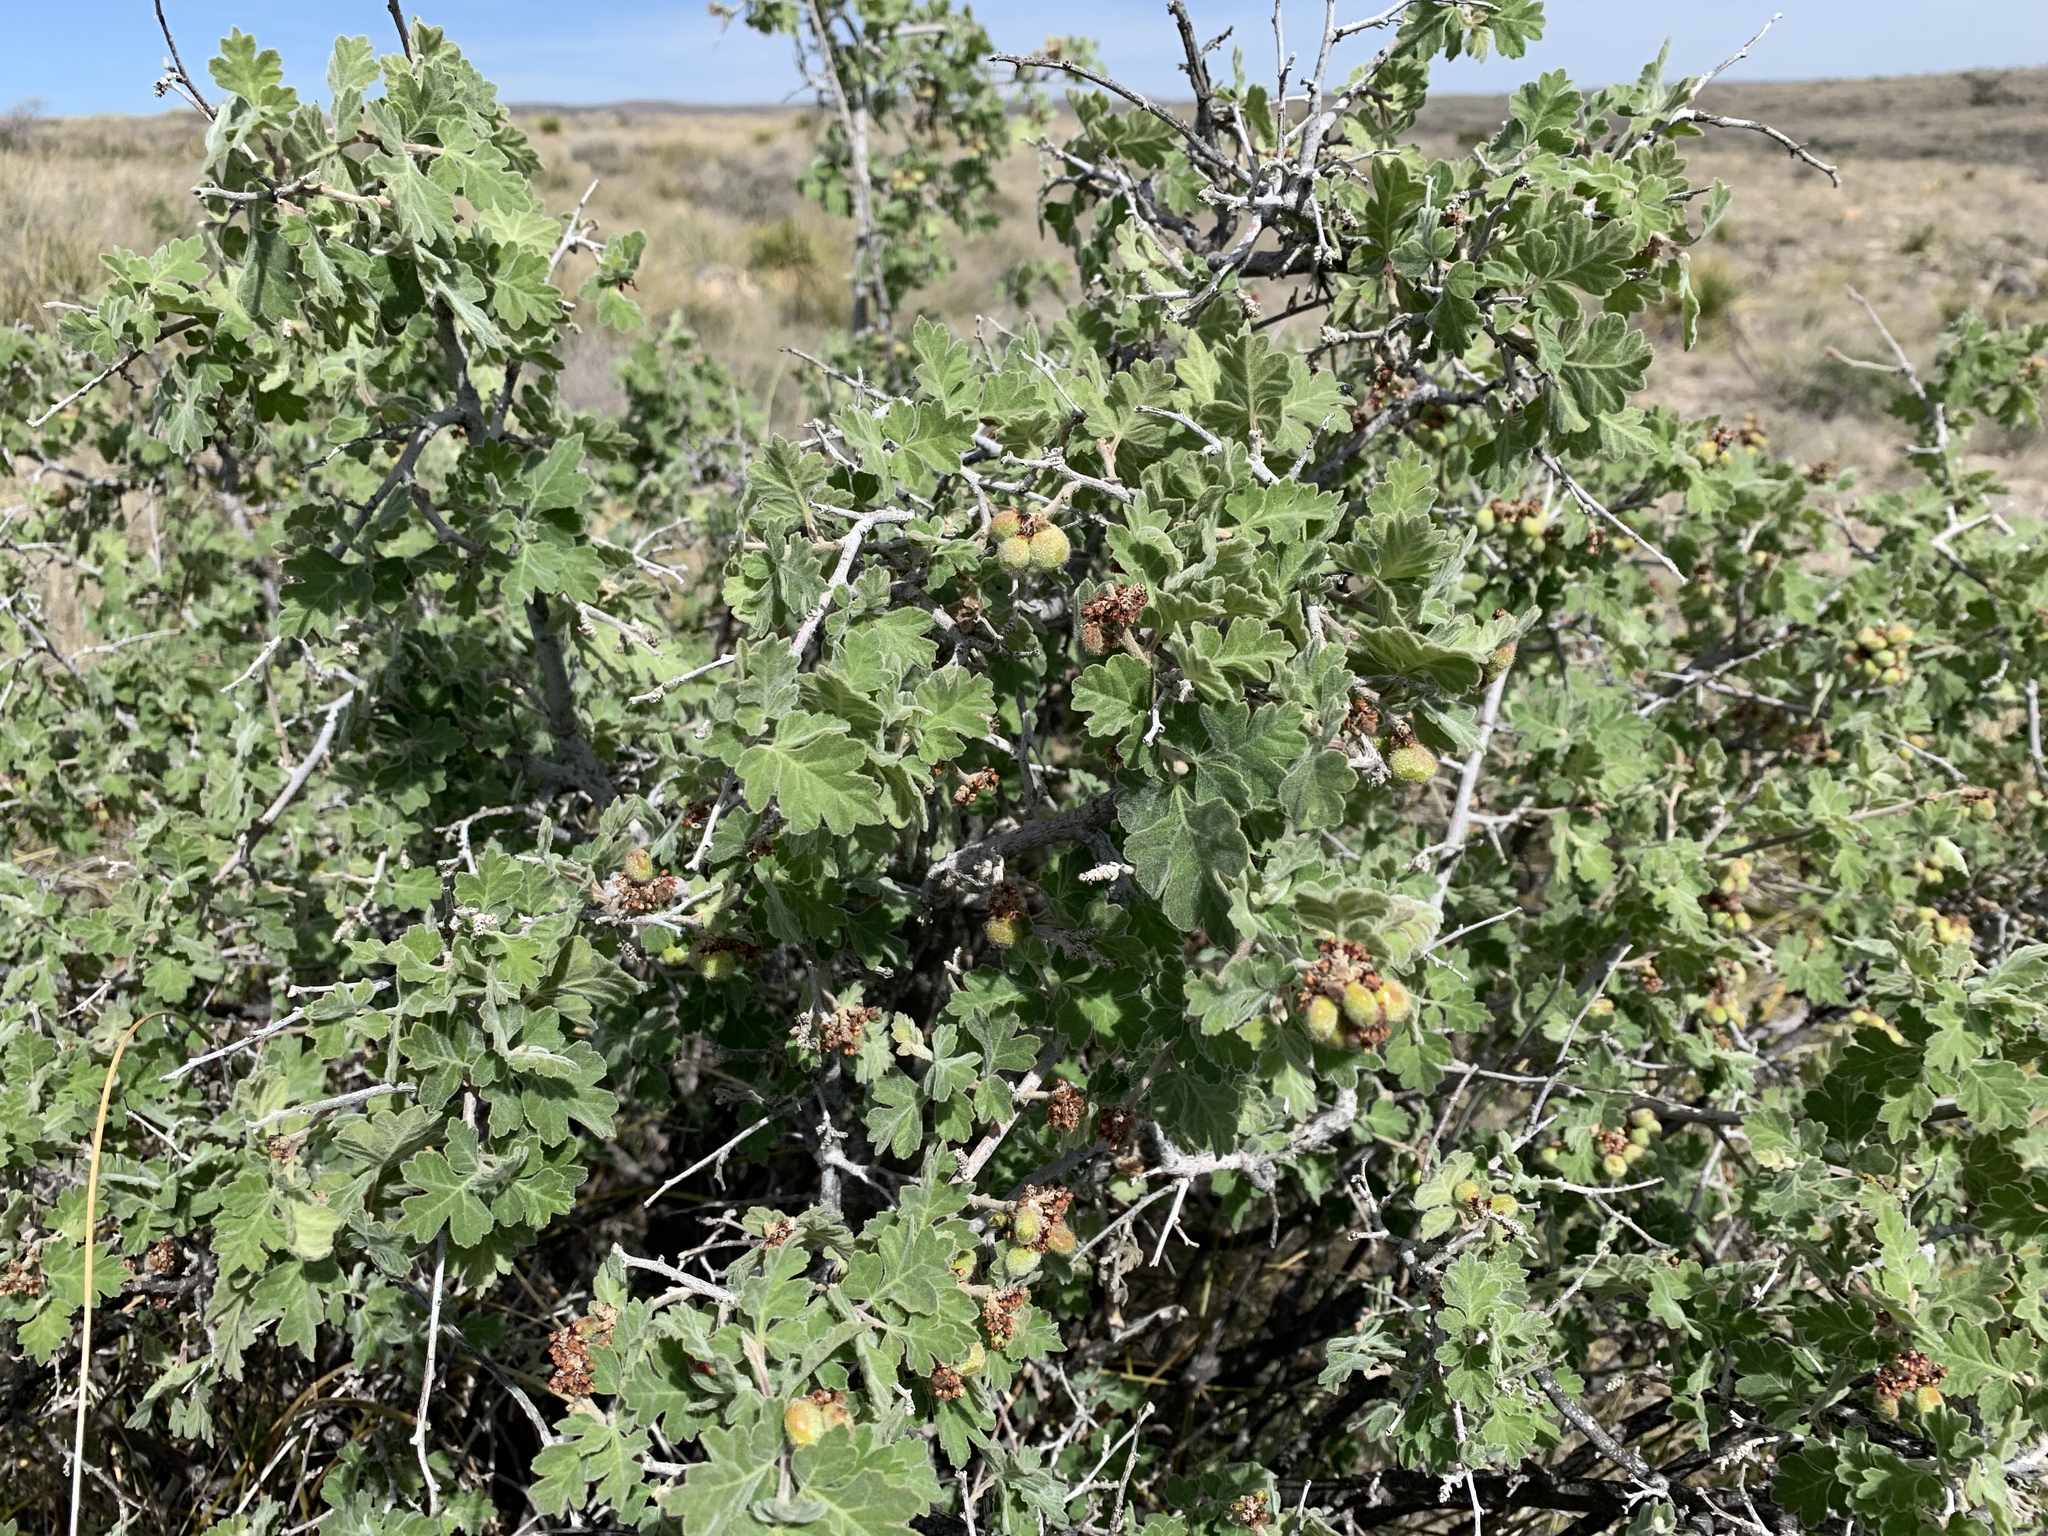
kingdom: Plantae
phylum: Tracheophyta
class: Magnoliopsida
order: Sapindales
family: Anacardiaceae
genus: Rhus
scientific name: Rhus aromatica
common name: Aromatic sumac
